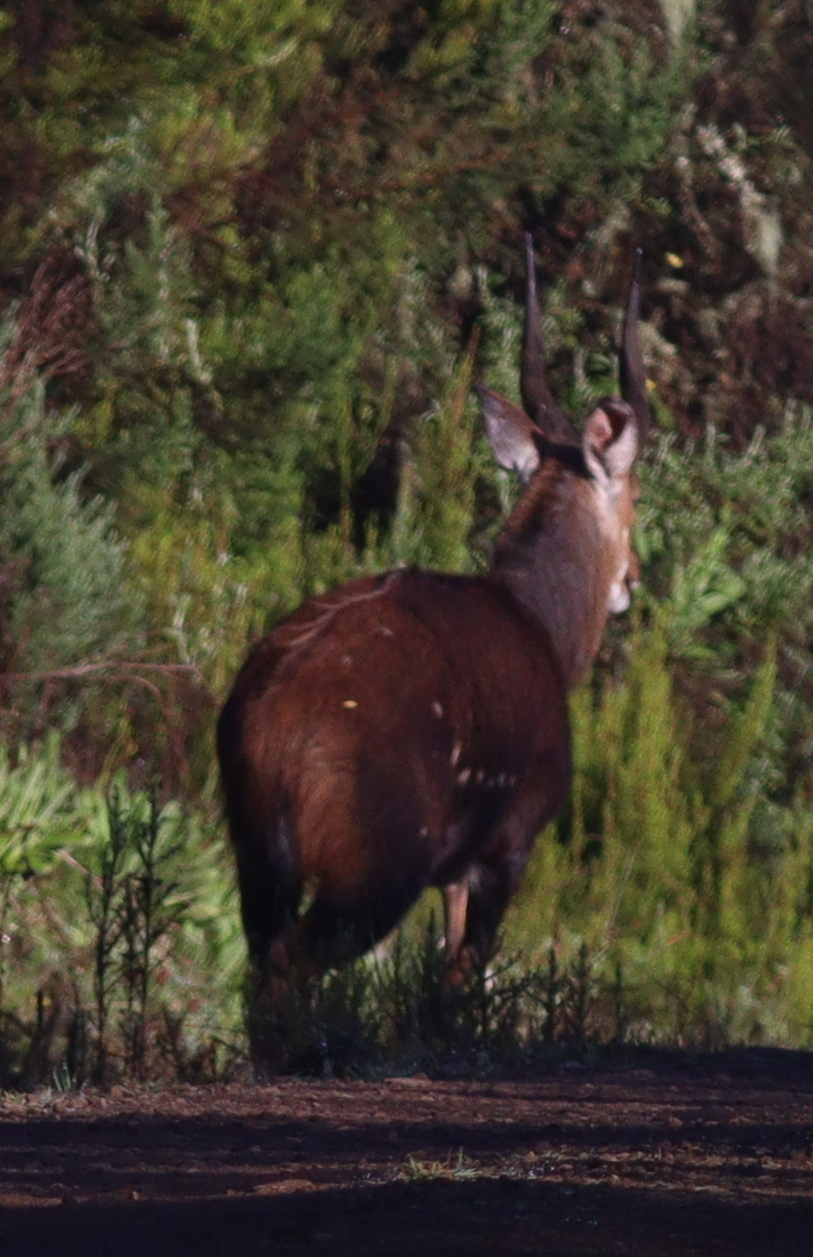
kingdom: Animalia
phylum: Chordata
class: Mammalia
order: Artiodactyla
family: Bovidae
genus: Tragelaphus
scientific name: Tragelaphus scriptus
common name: Bushbuck
